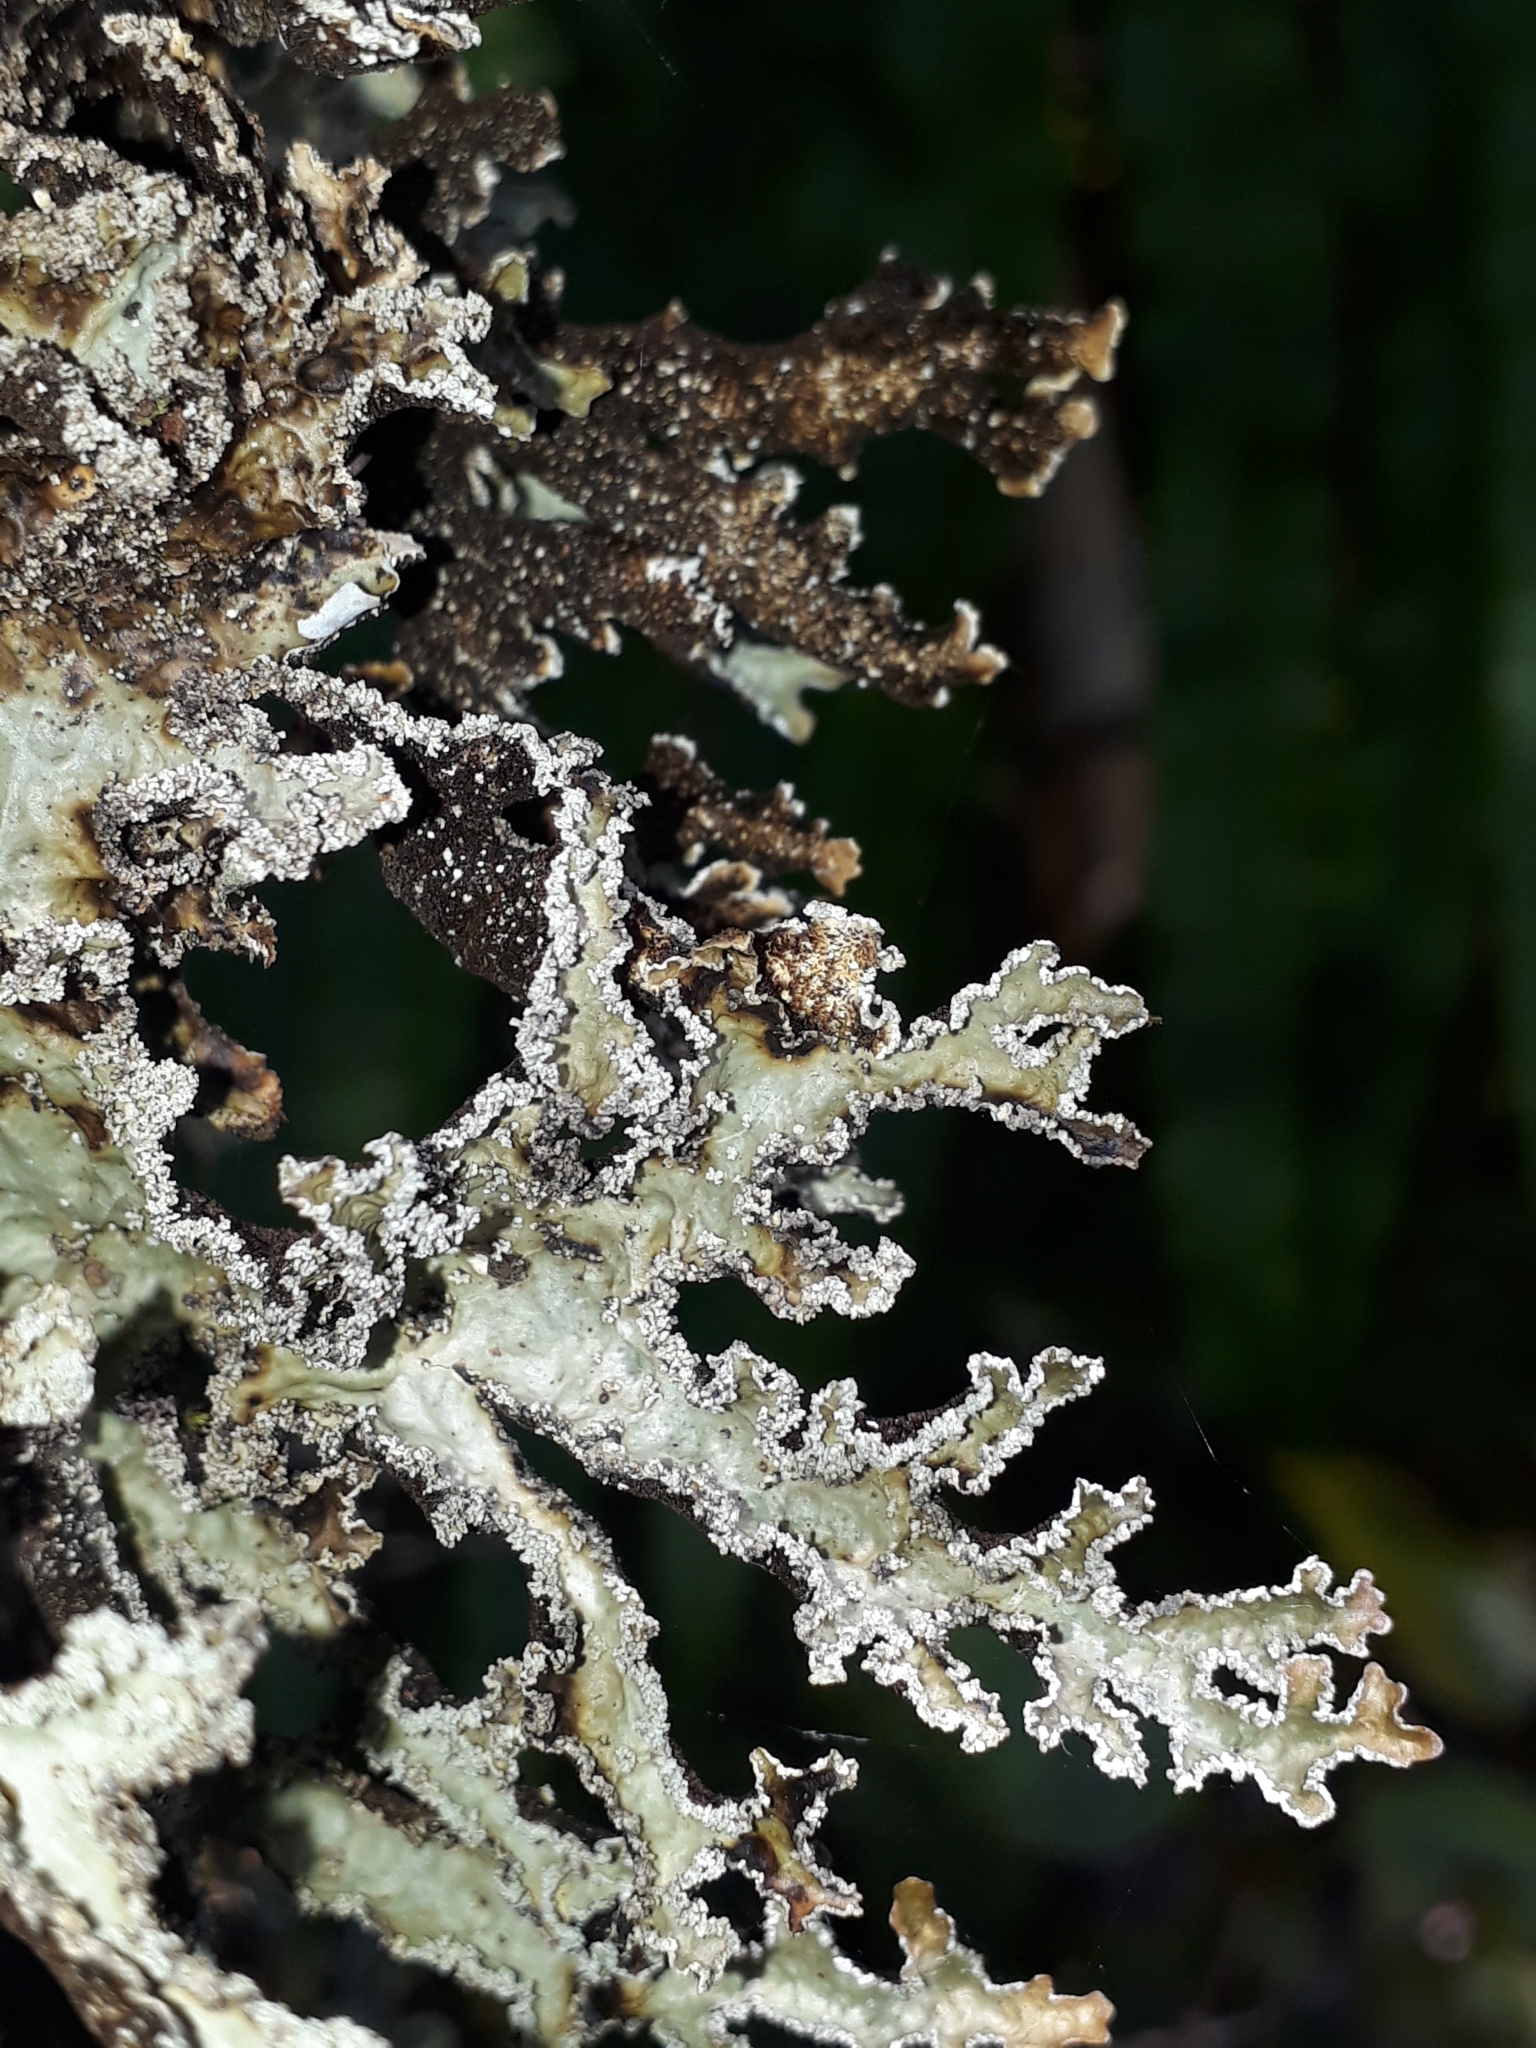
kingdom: Fungi
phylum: Ascomycota
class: Lecanoromycetes
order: Peltigerales
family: Lobariaceae
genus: Pseudocyphellaria
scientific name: Pseudocyphellaria granulata
